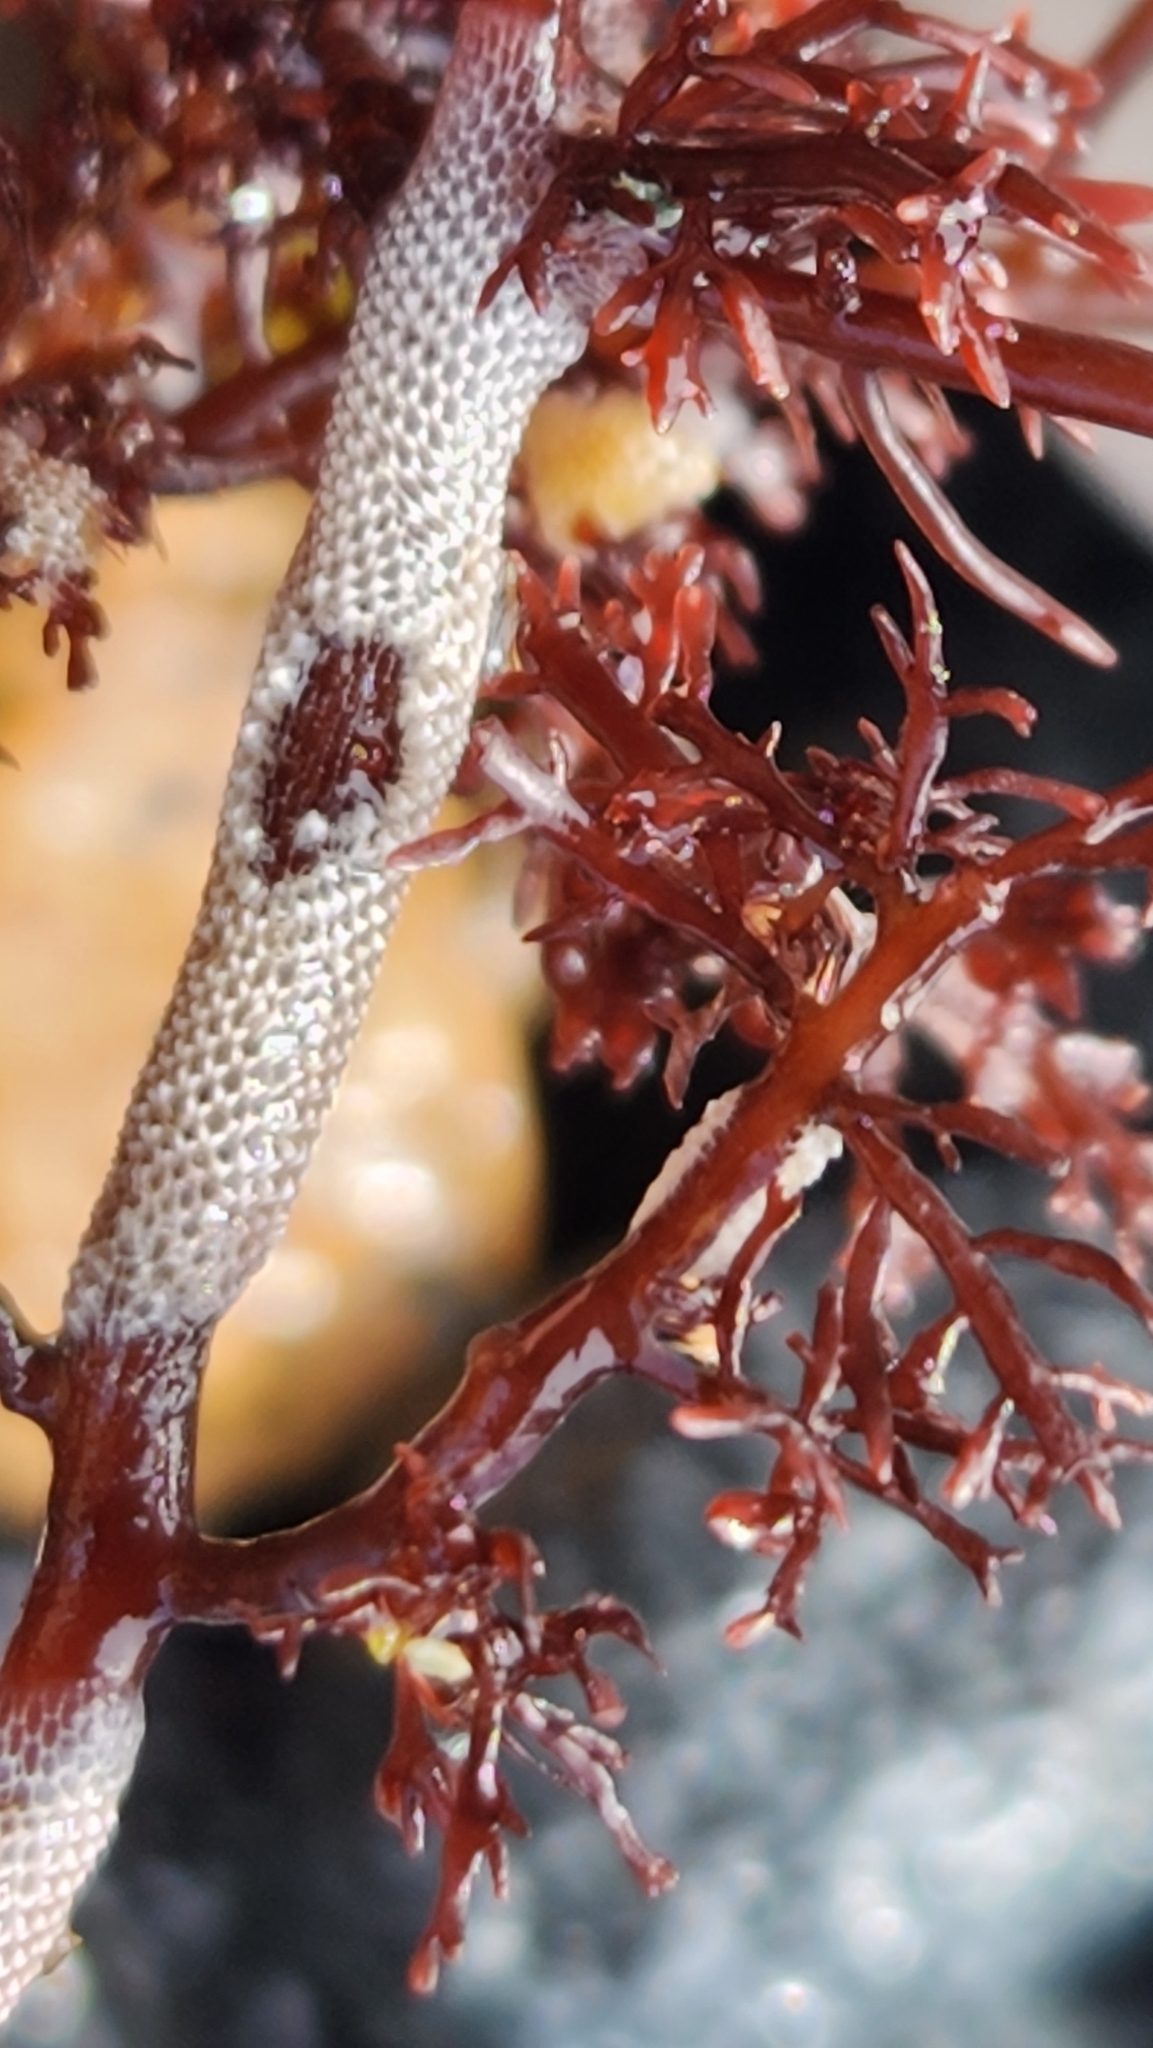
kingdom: Animalia
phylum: Bryozoa
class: Gymnolaemata
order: Cheilostomatida
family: Membraniporidae
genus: Jellyella
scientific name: Jellyella tuberculata
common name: Sargassum bryozoan
